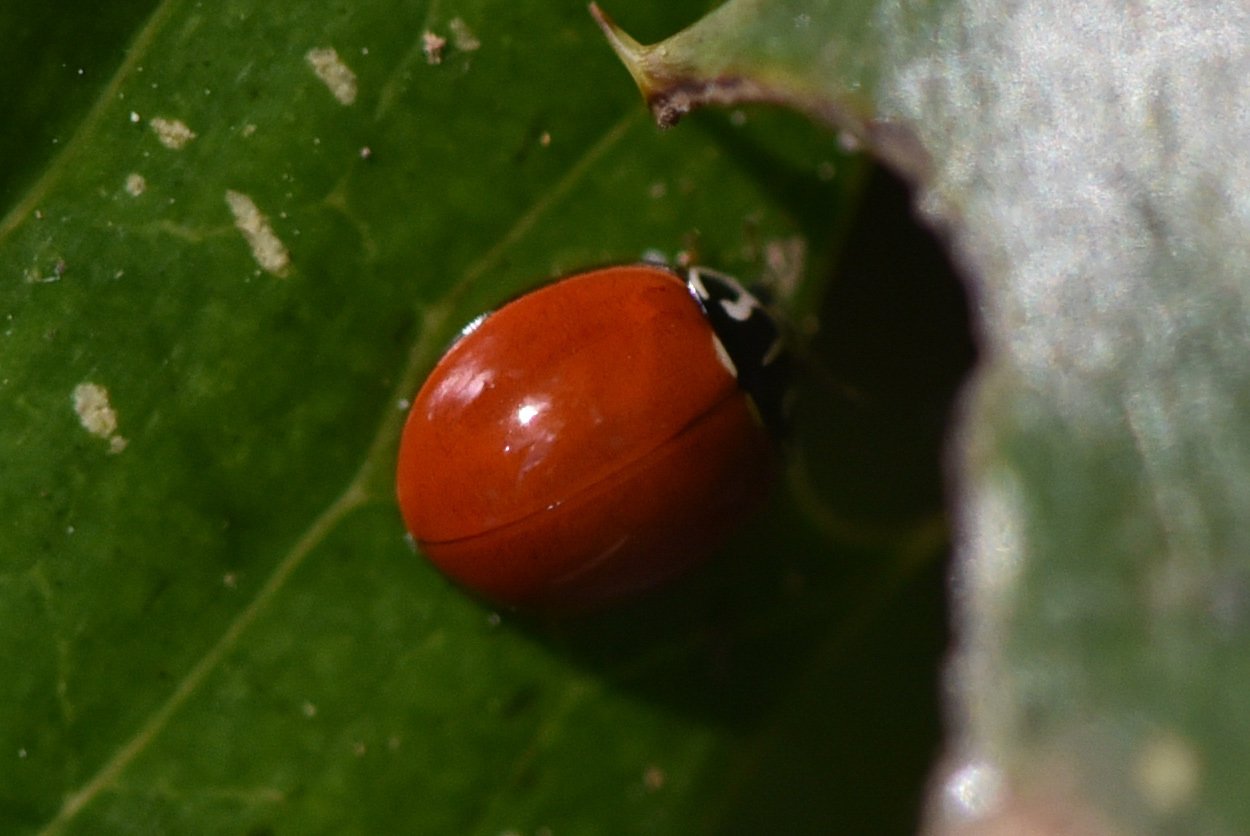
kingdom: Animalia
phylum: Arthropoda
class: Insecta
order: Coleoptera
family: Coccinellidae
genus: Cycloneda
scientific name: Cycloneda polita
